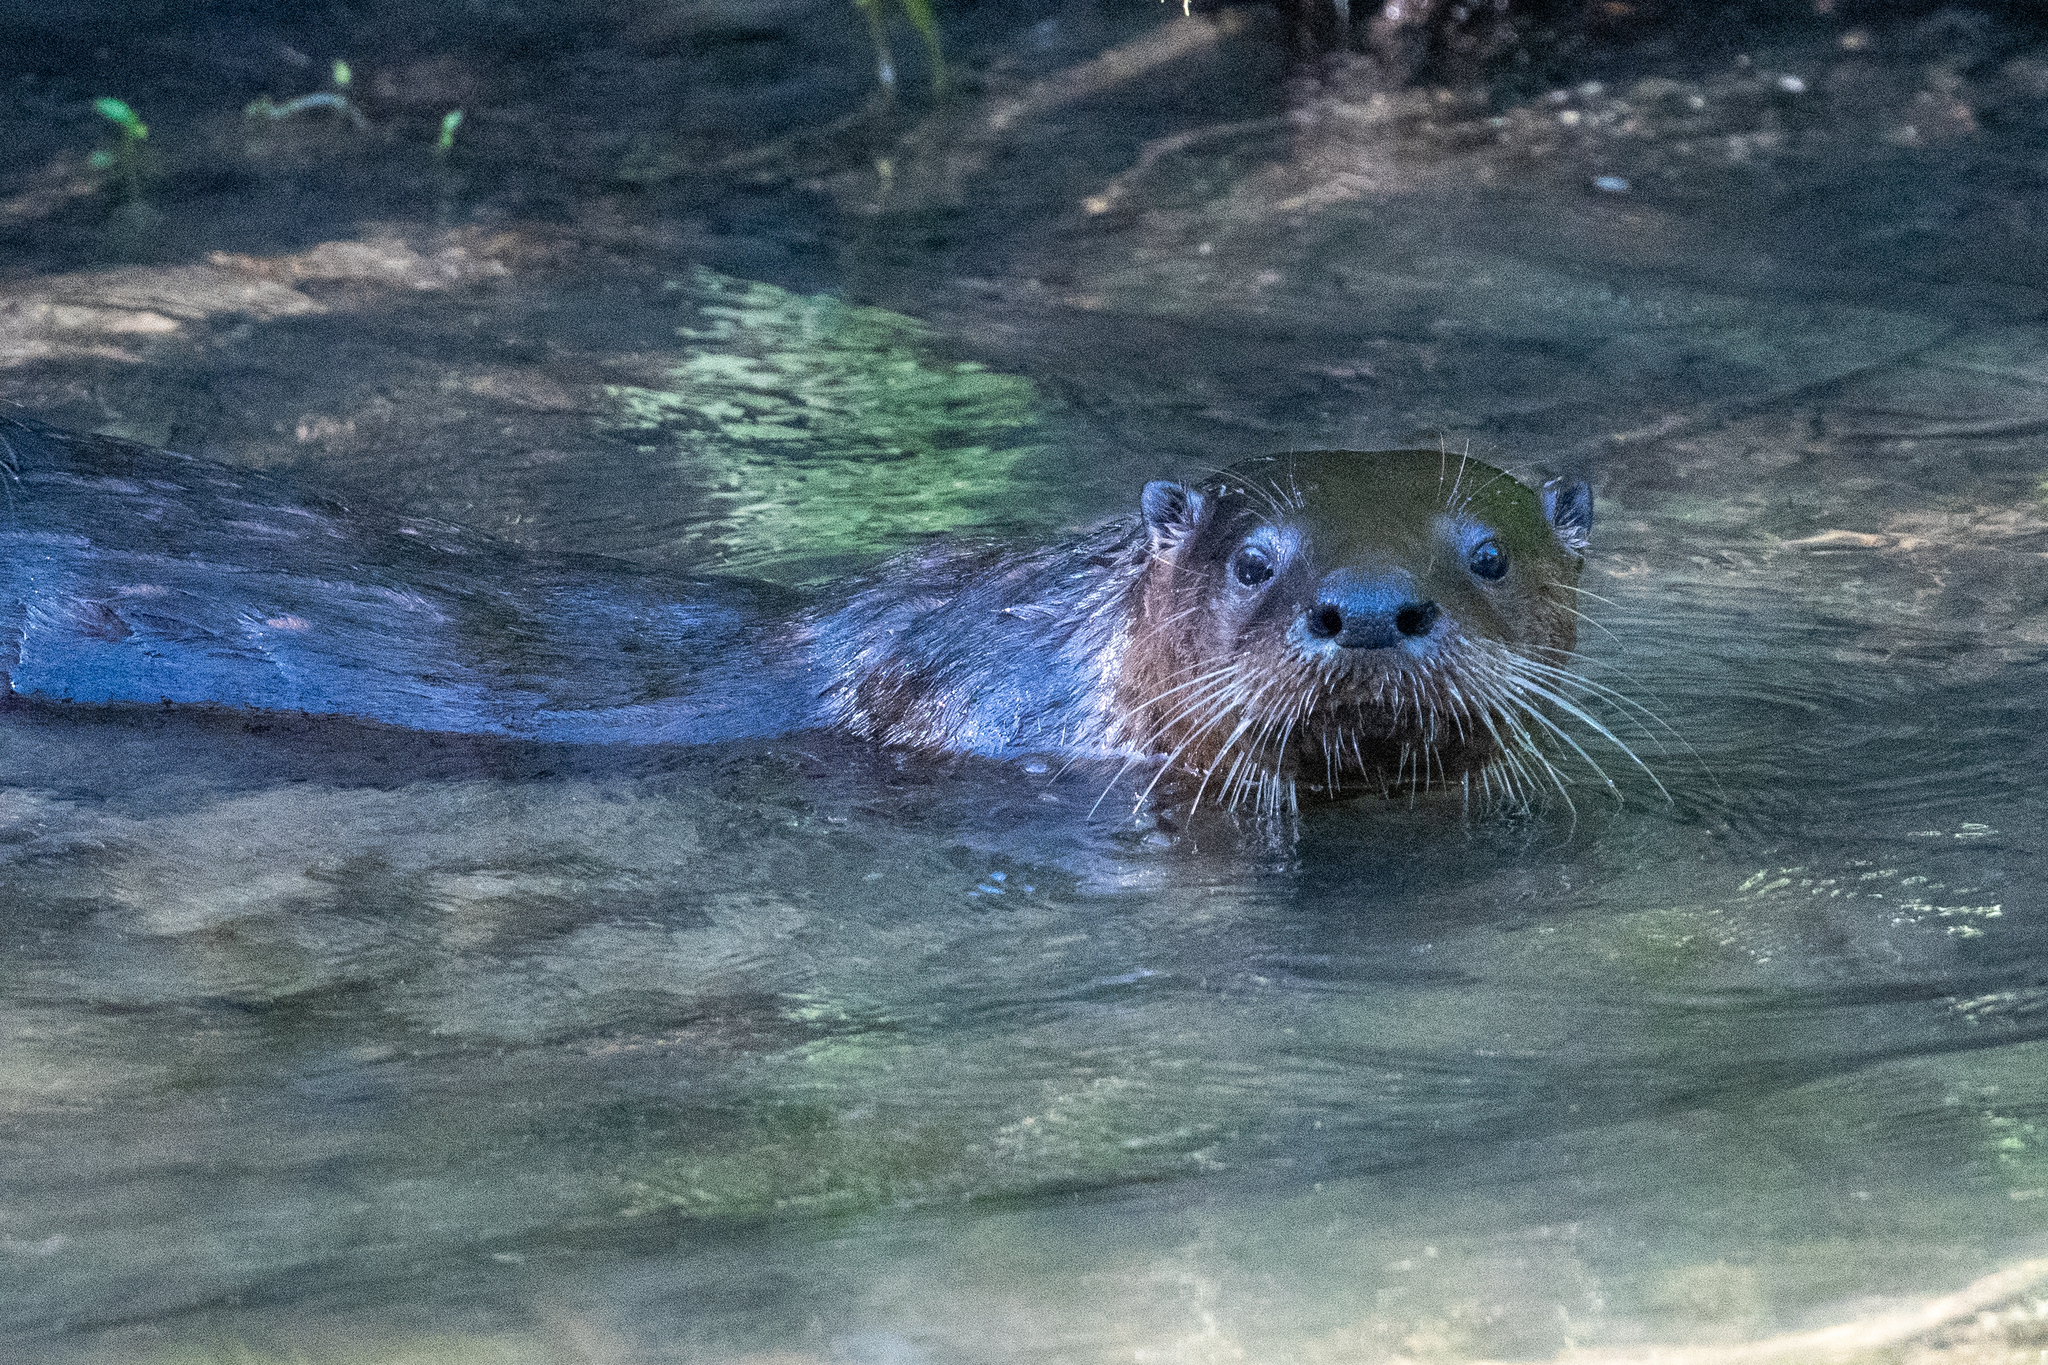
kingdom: Animalia
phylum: Chordata
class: Mammalia
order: Carnivora
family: Mustelidae
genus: Lontra
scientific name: Lontra canadensis
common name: North american river otter
